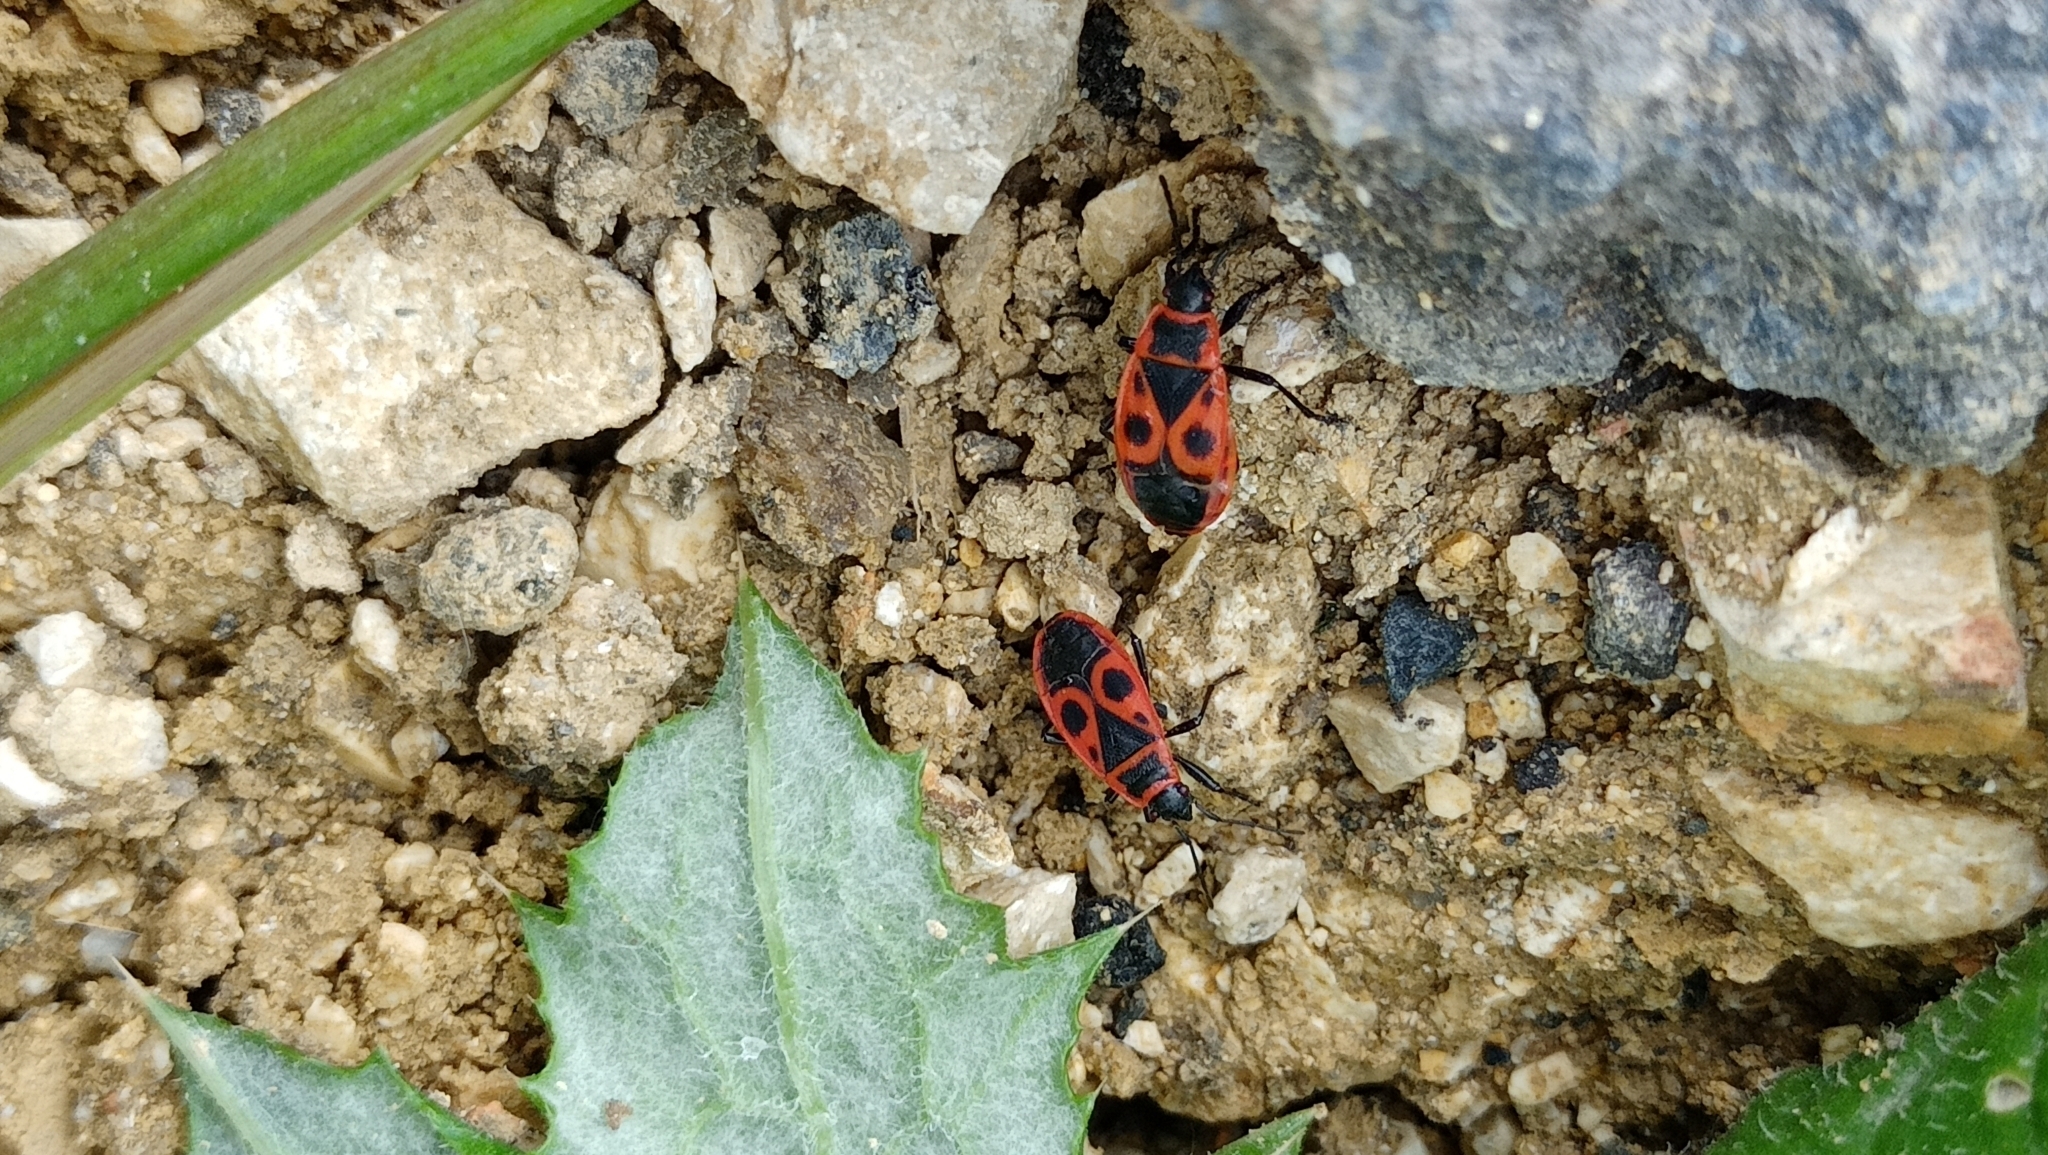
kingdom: Animalia
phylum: Arthropoda
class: Insecta
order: Hemiptera
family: Pyrrhocoridae
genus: Pyrrhocoris
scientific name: Pyrrhocoris apterus
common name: Firebug
